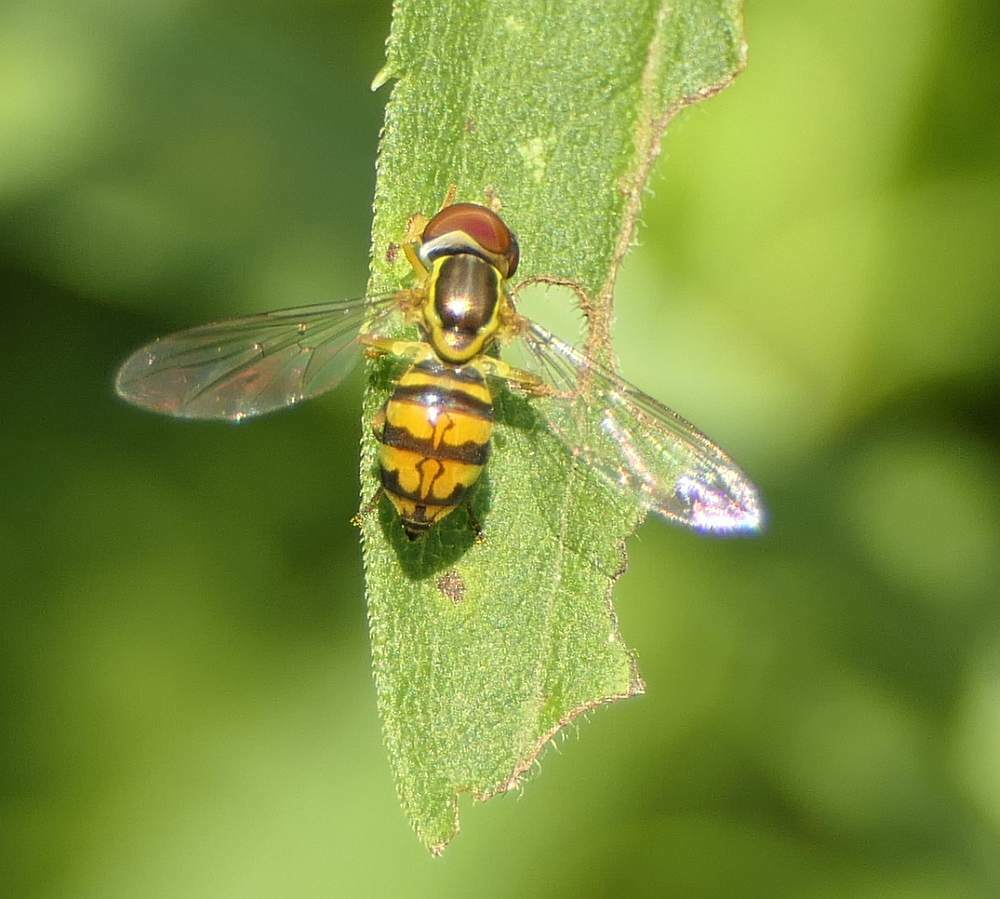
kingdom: Animalia
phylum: Arthropoda
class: Insecta
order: Diptera
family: Syrphidae
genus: Toxomerus
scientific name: Toxomerus geminatus
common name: Eastern calligrapher
